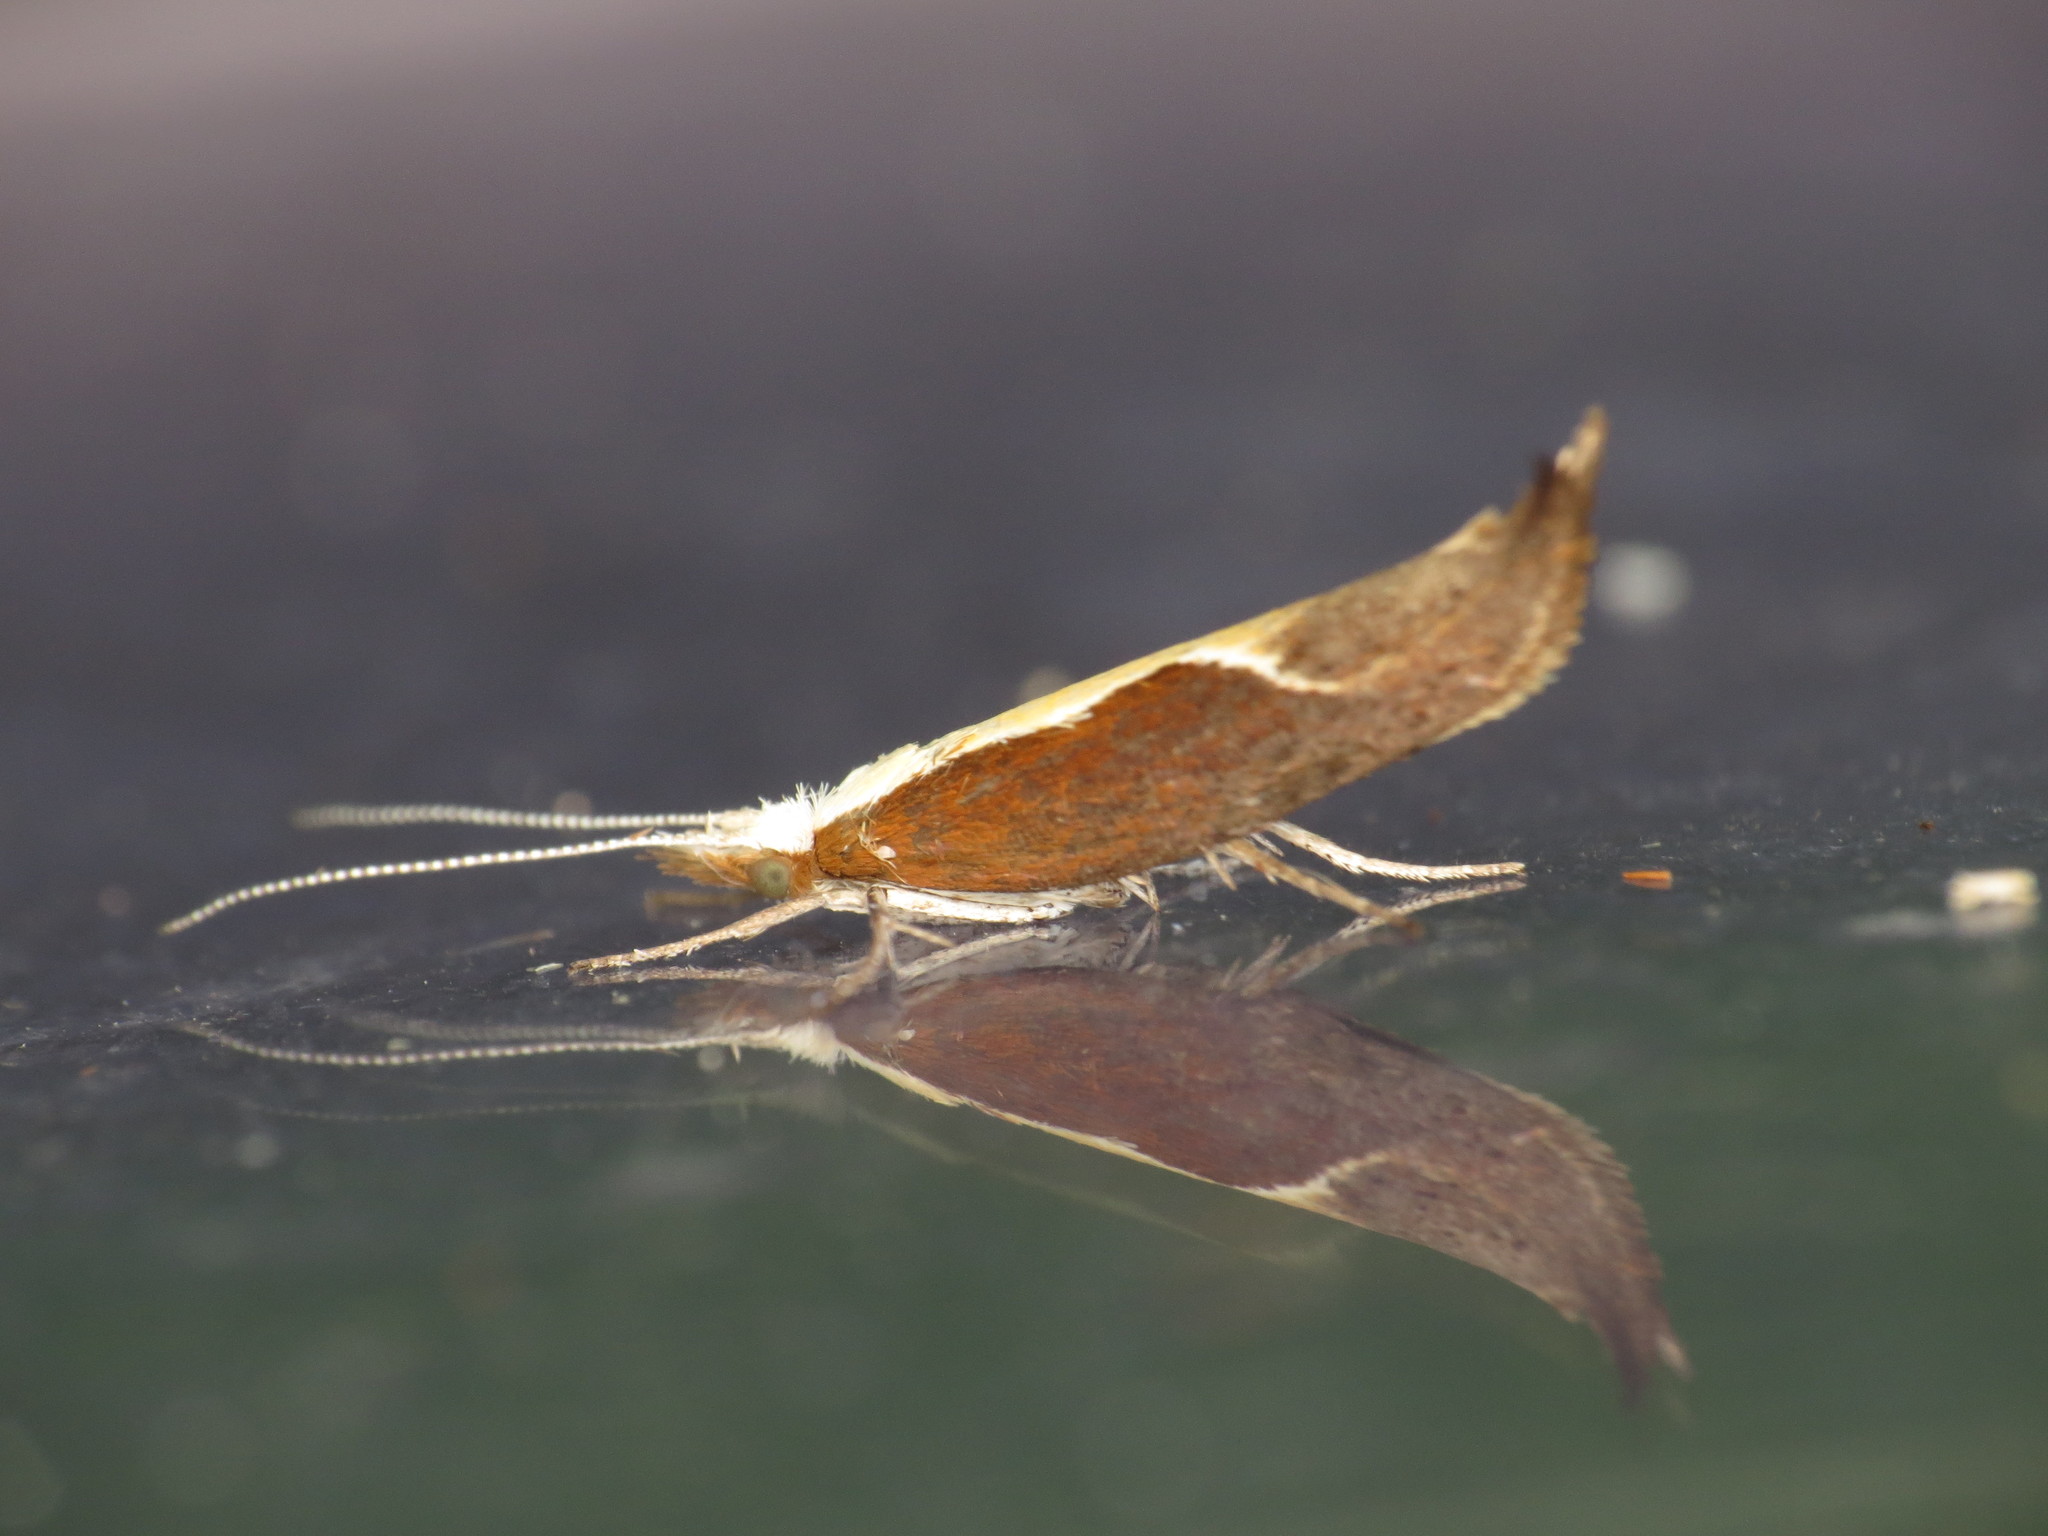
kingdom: Animalia
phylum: Arthropoda
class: Insecta
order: Lepidoptera
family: Ypsolophidae
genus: Ypsolopha
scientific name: Ypsolopha dentella
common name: Honeysuckle moth
